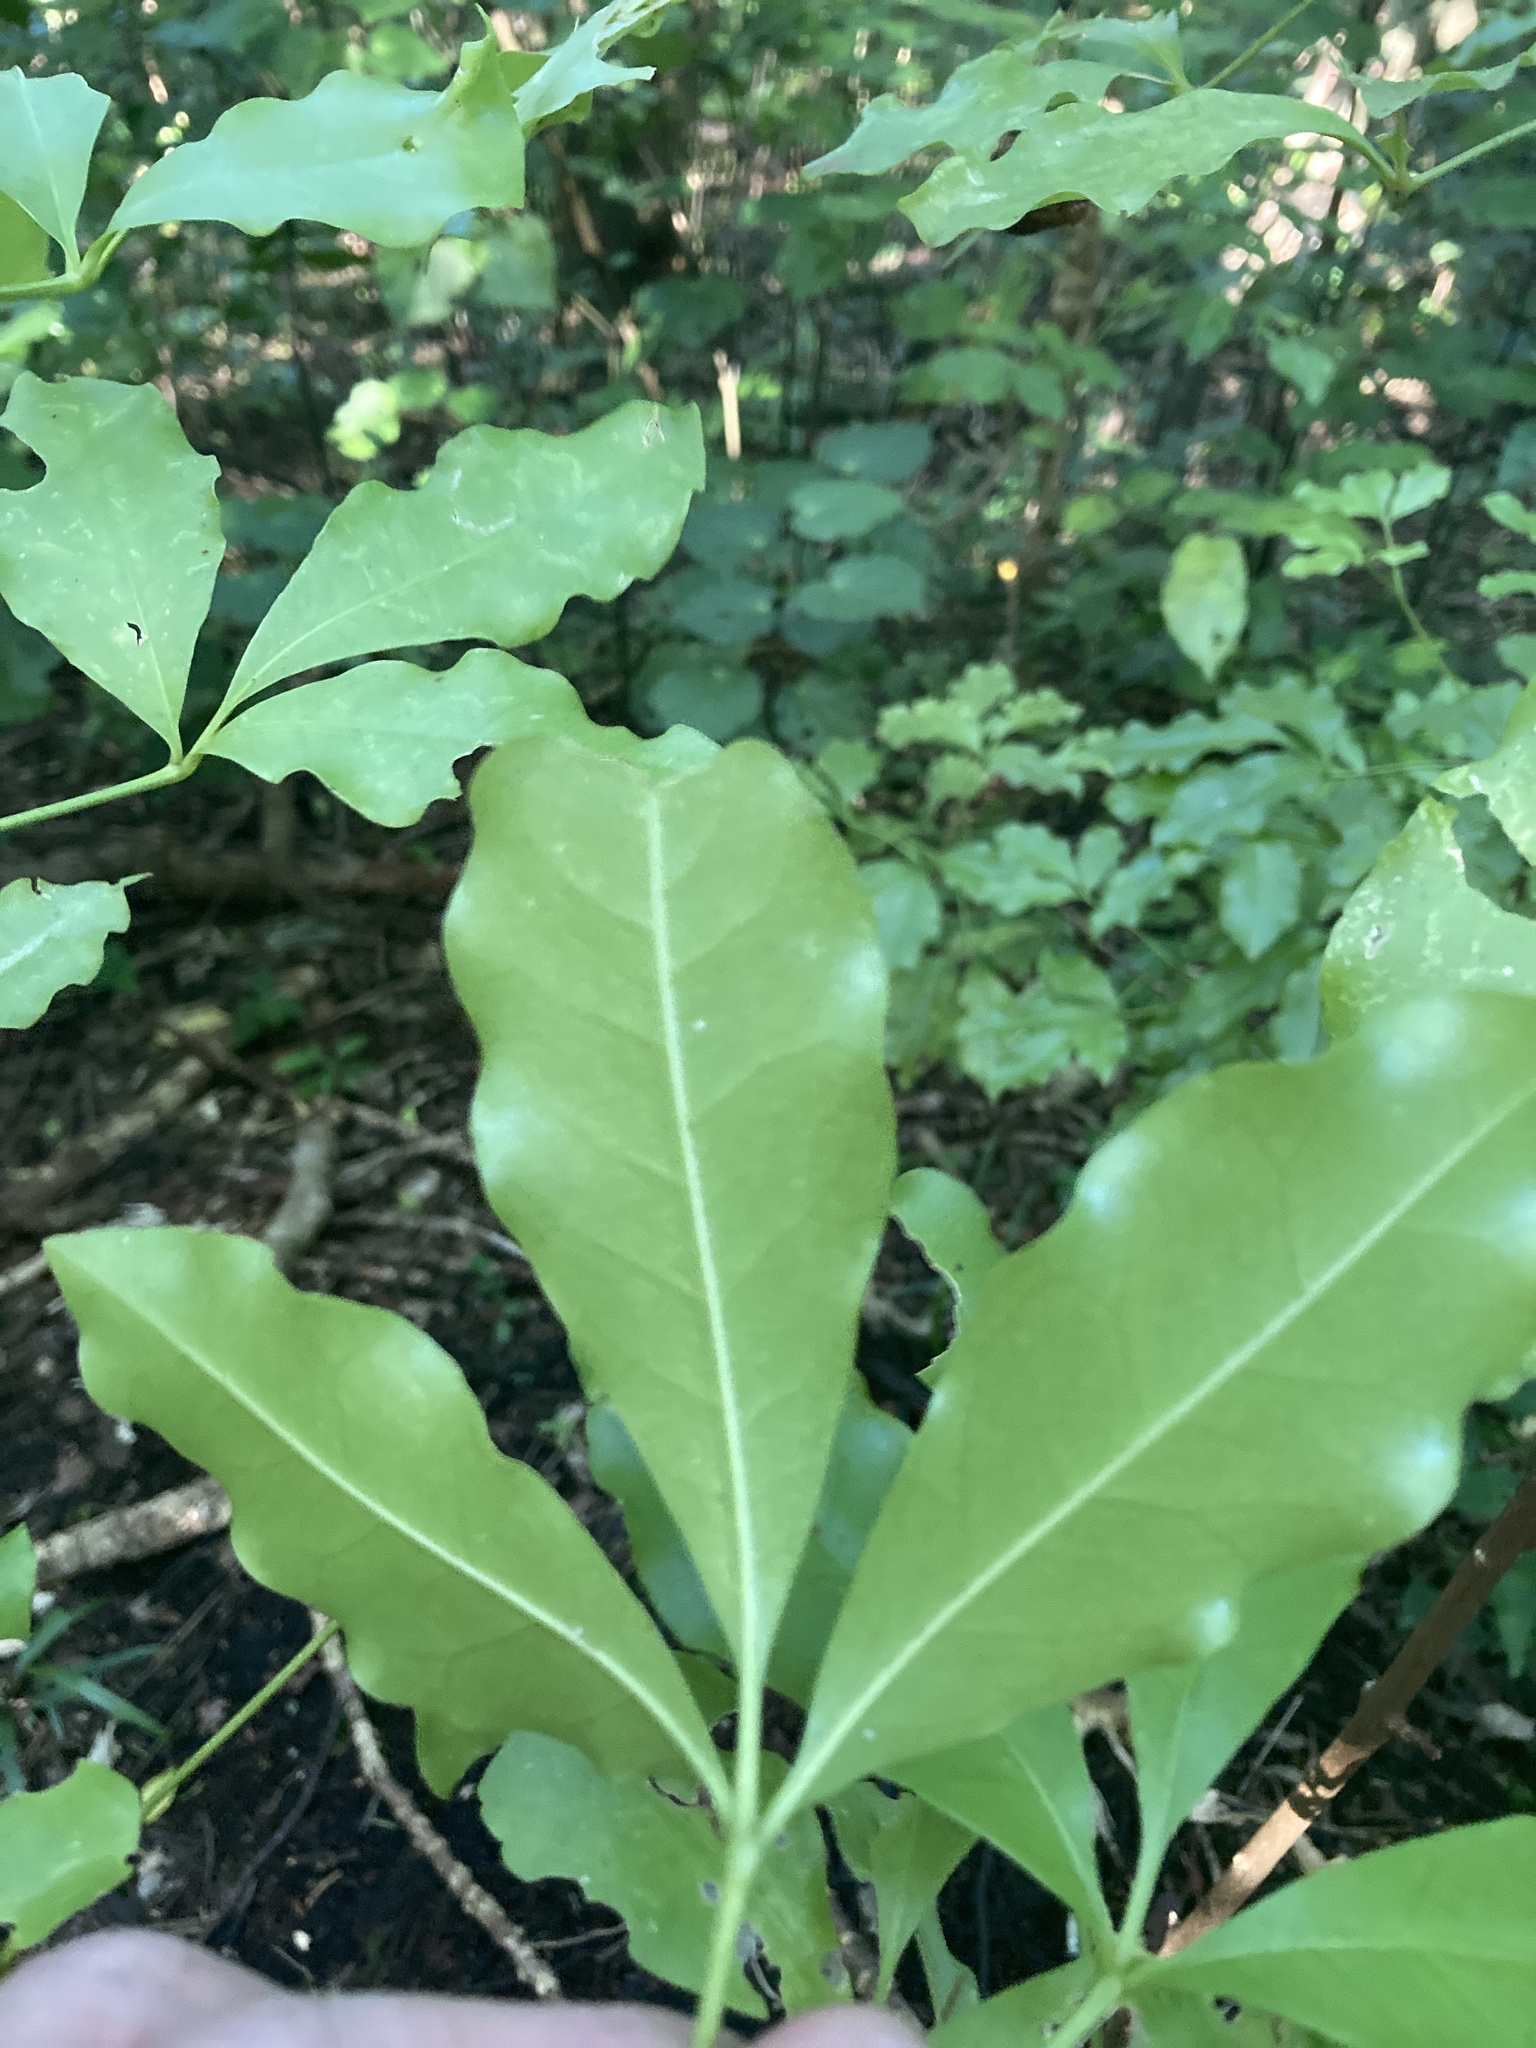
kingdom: Plantae
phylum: Tracheophyta
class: Magnoliopsida
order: Sapindales
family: Rutaceae
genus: Melicope
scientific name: Melicope ternata
